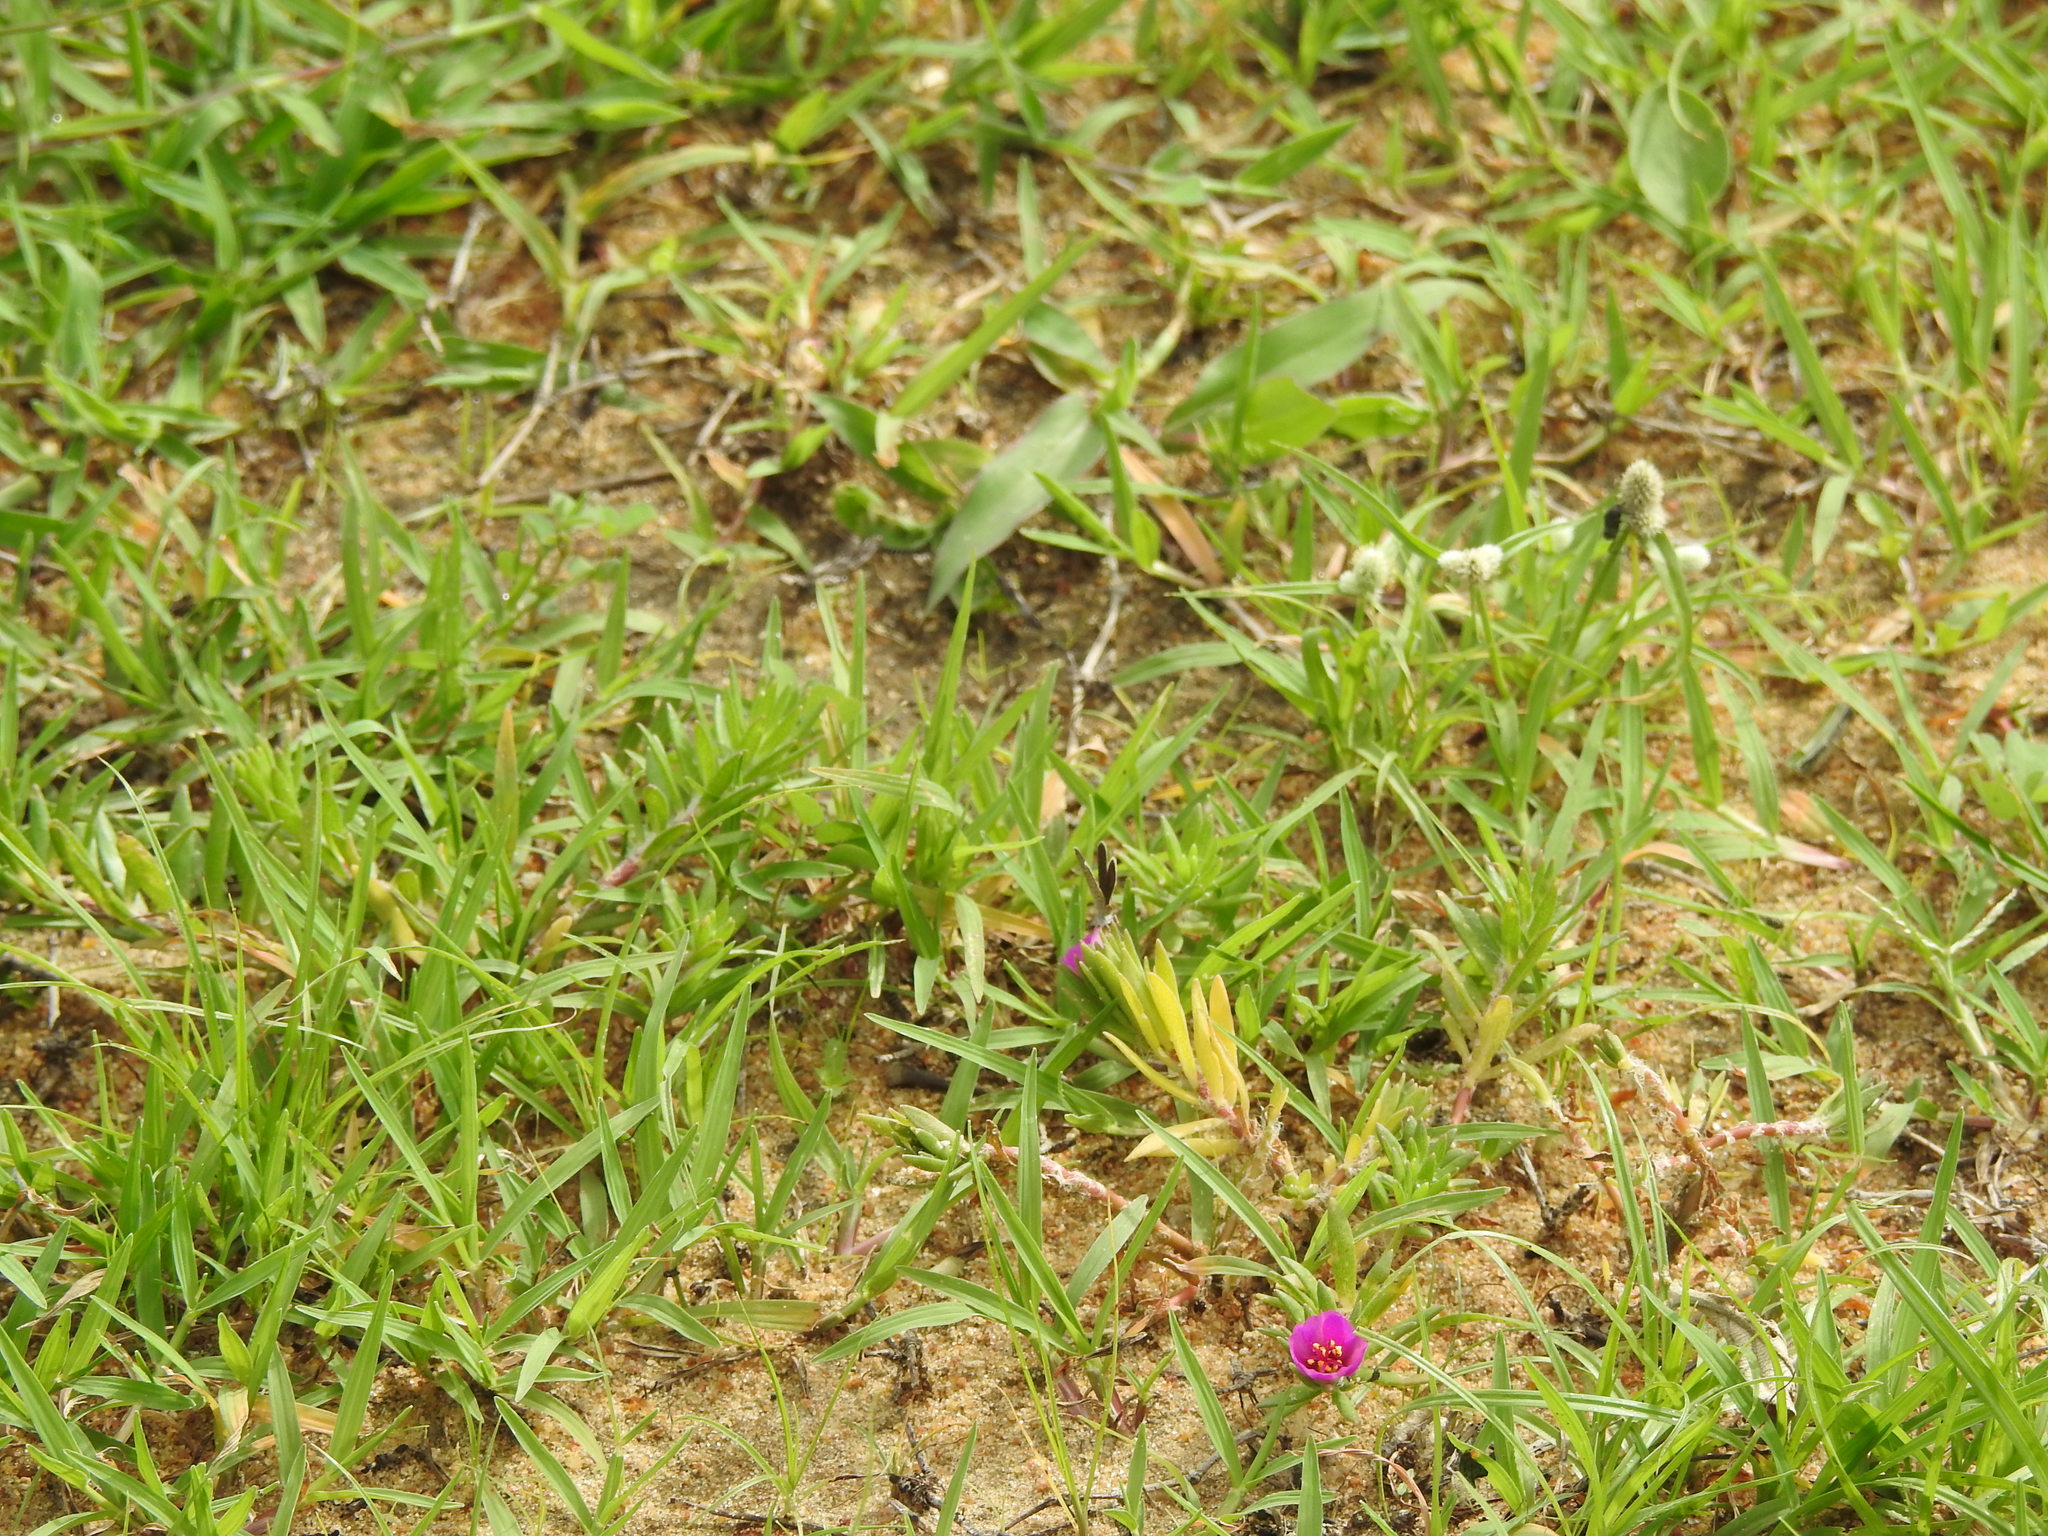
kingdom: Animalia
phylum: Arthropoda
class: Insecta
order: Lepidoptera
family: Lycaenidae
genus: Freyeria
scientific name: Freyeria putli
